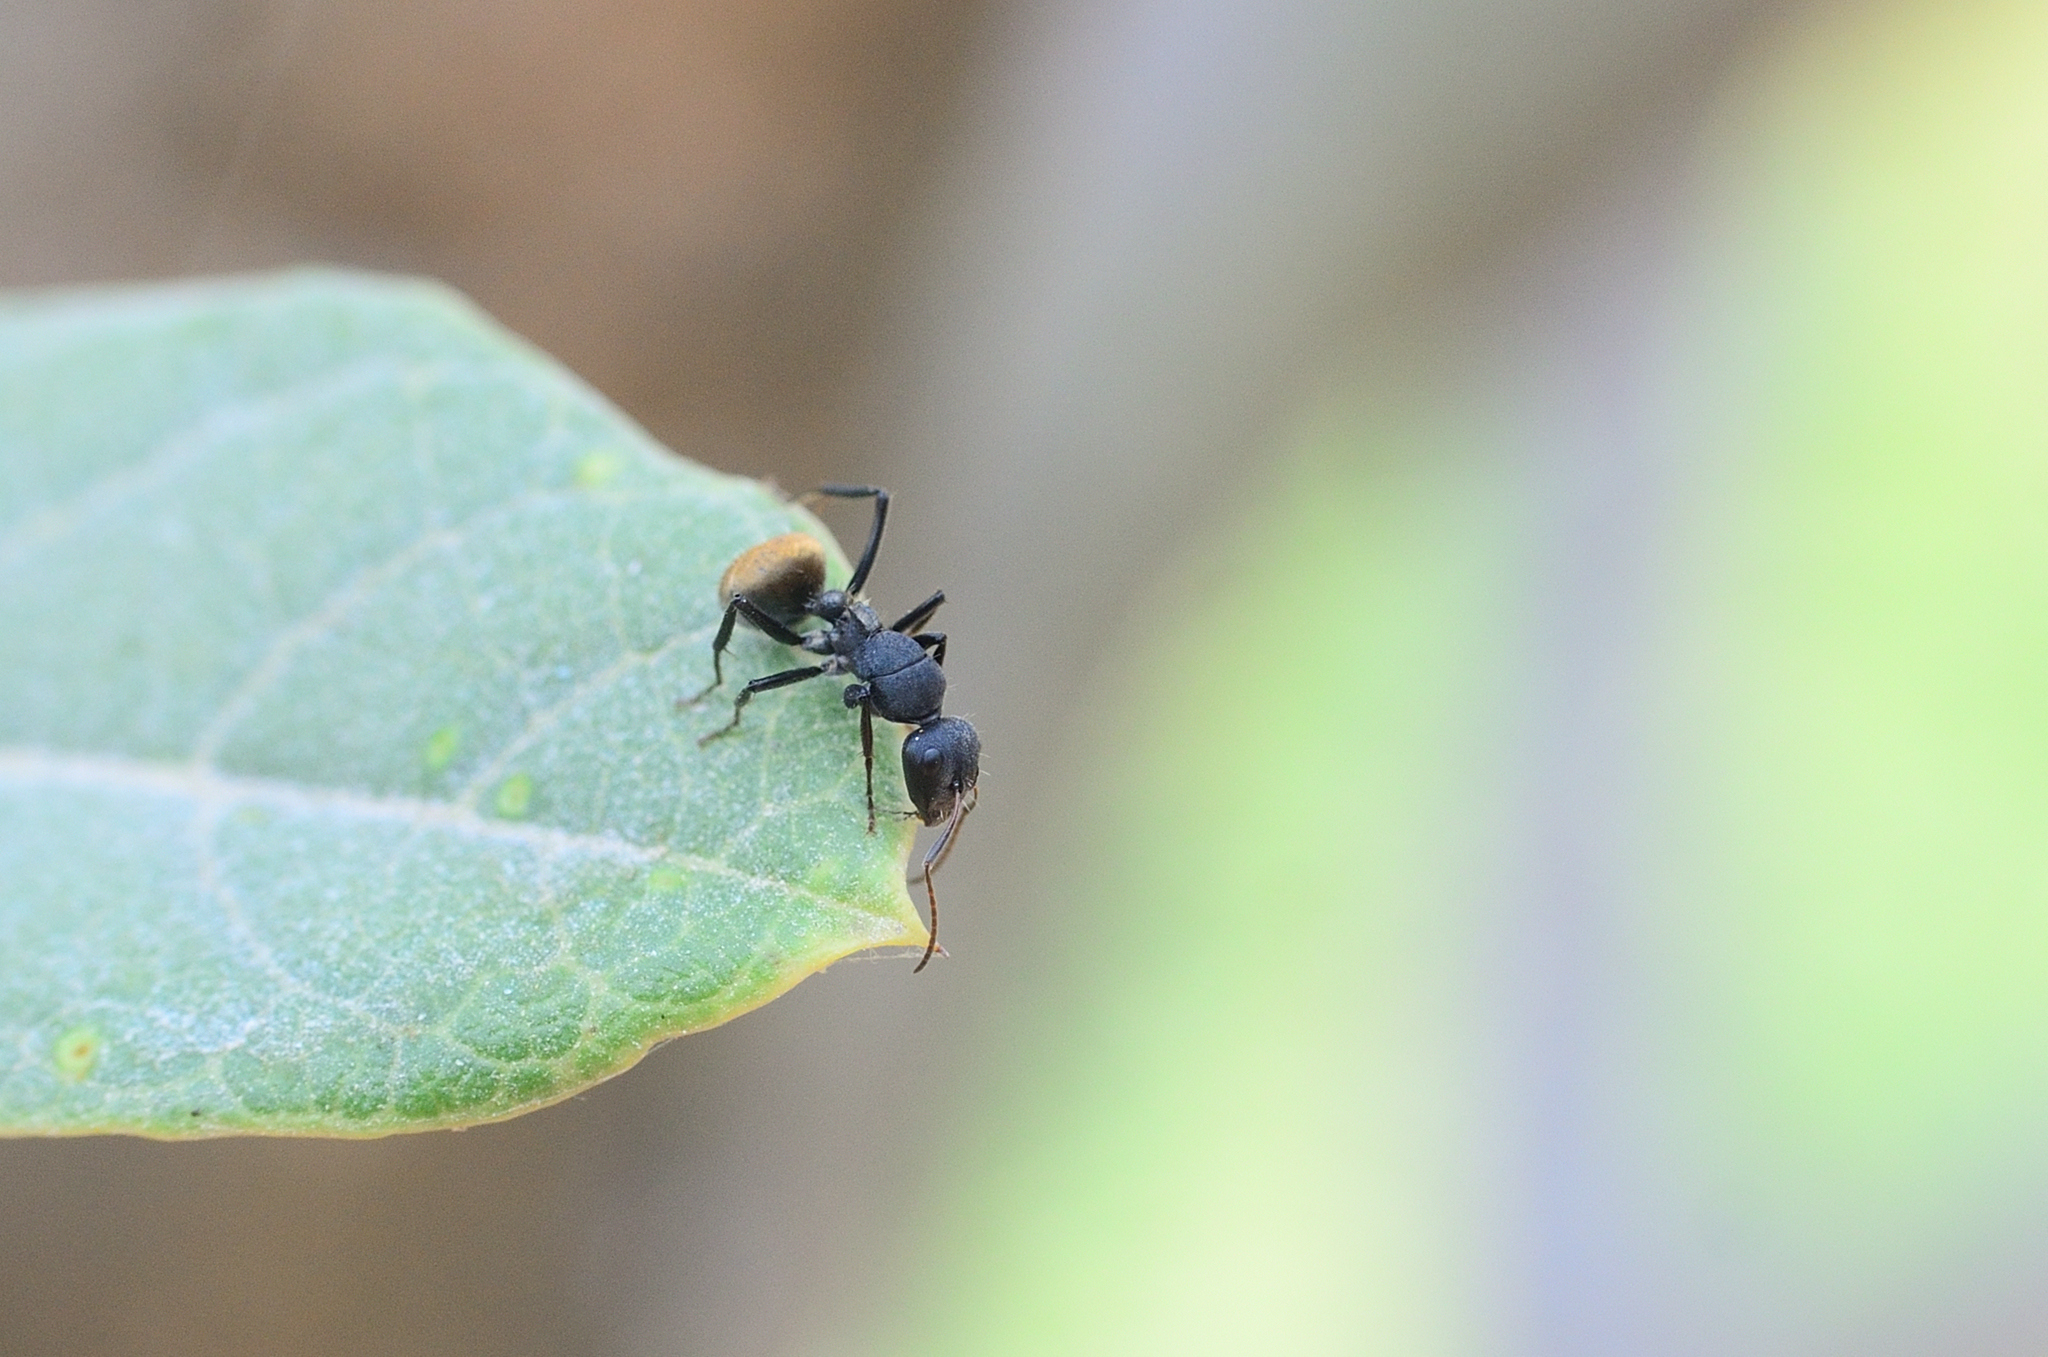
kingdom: Animalia
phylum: Arthropoda
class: Insecta
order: Hymenoptera
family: Formicidae
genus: Camponotus
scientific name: Camponotus sericeus
